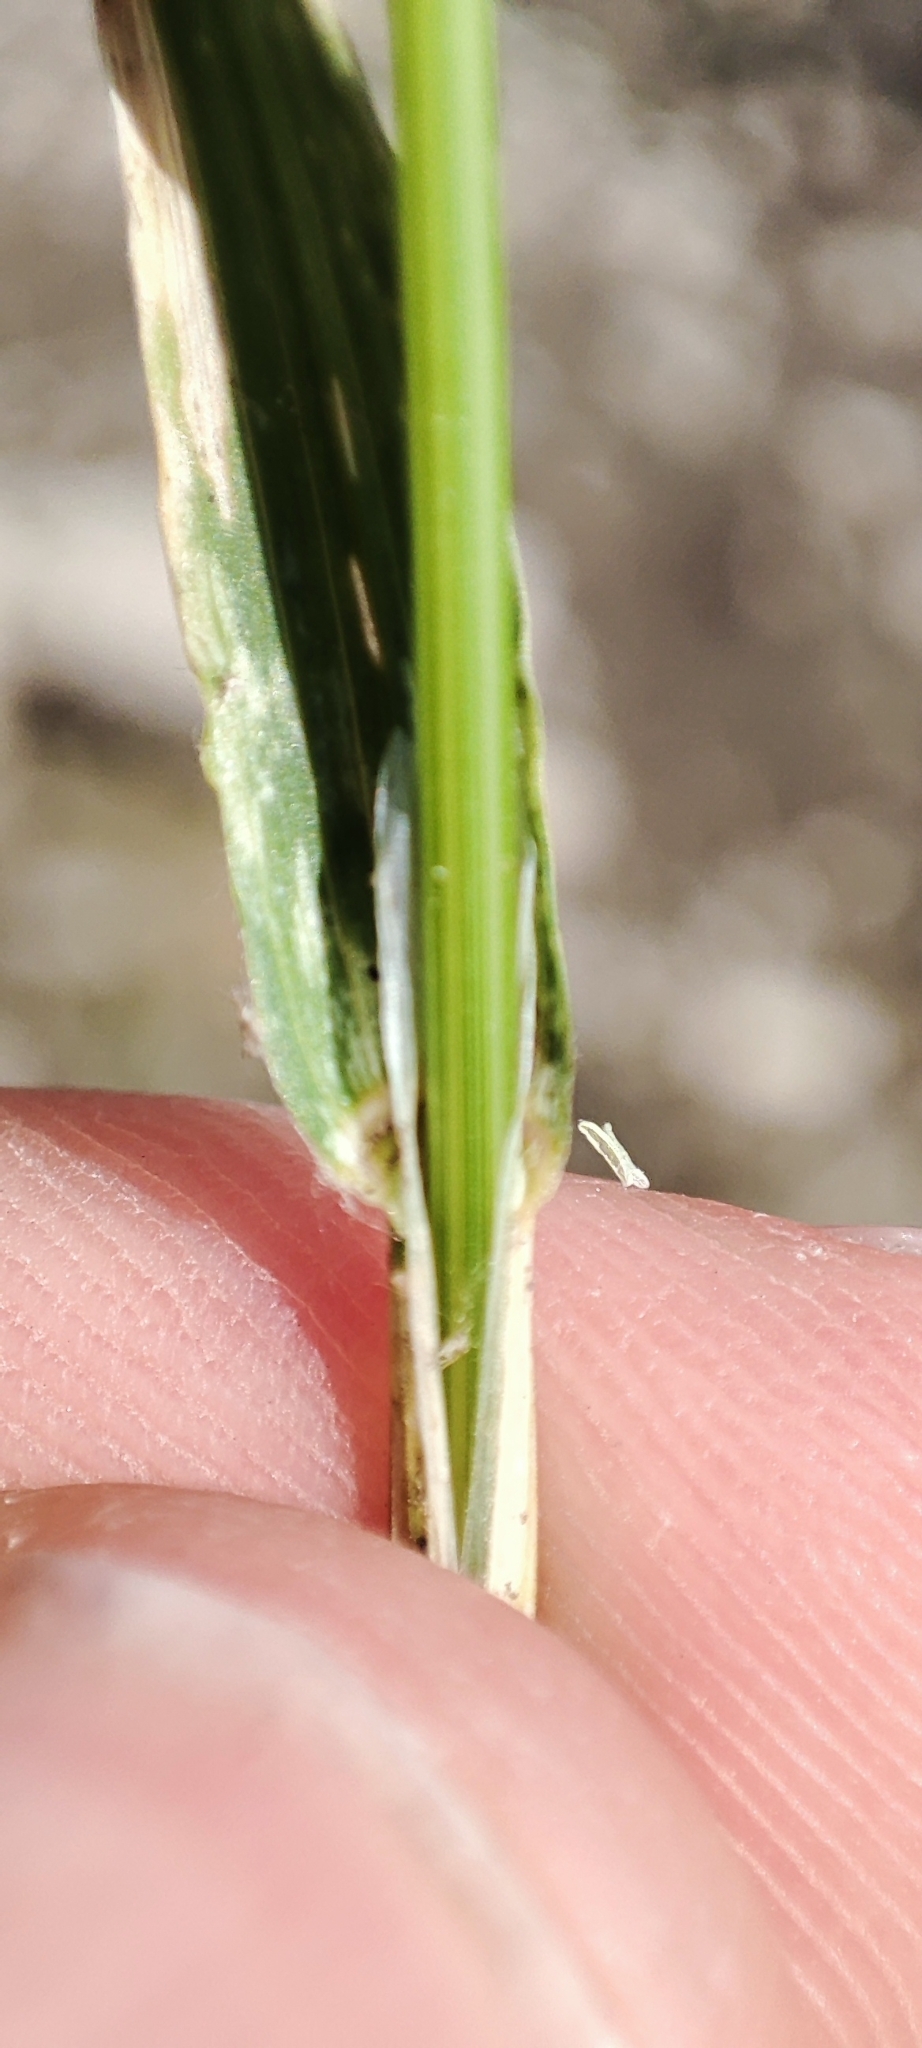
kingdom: Plantae
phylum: Tracheophyta
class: Liliopsida
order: Poales
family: Poaceae
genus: Poa
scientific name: Poa trivialis
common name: Rough bluegrass
